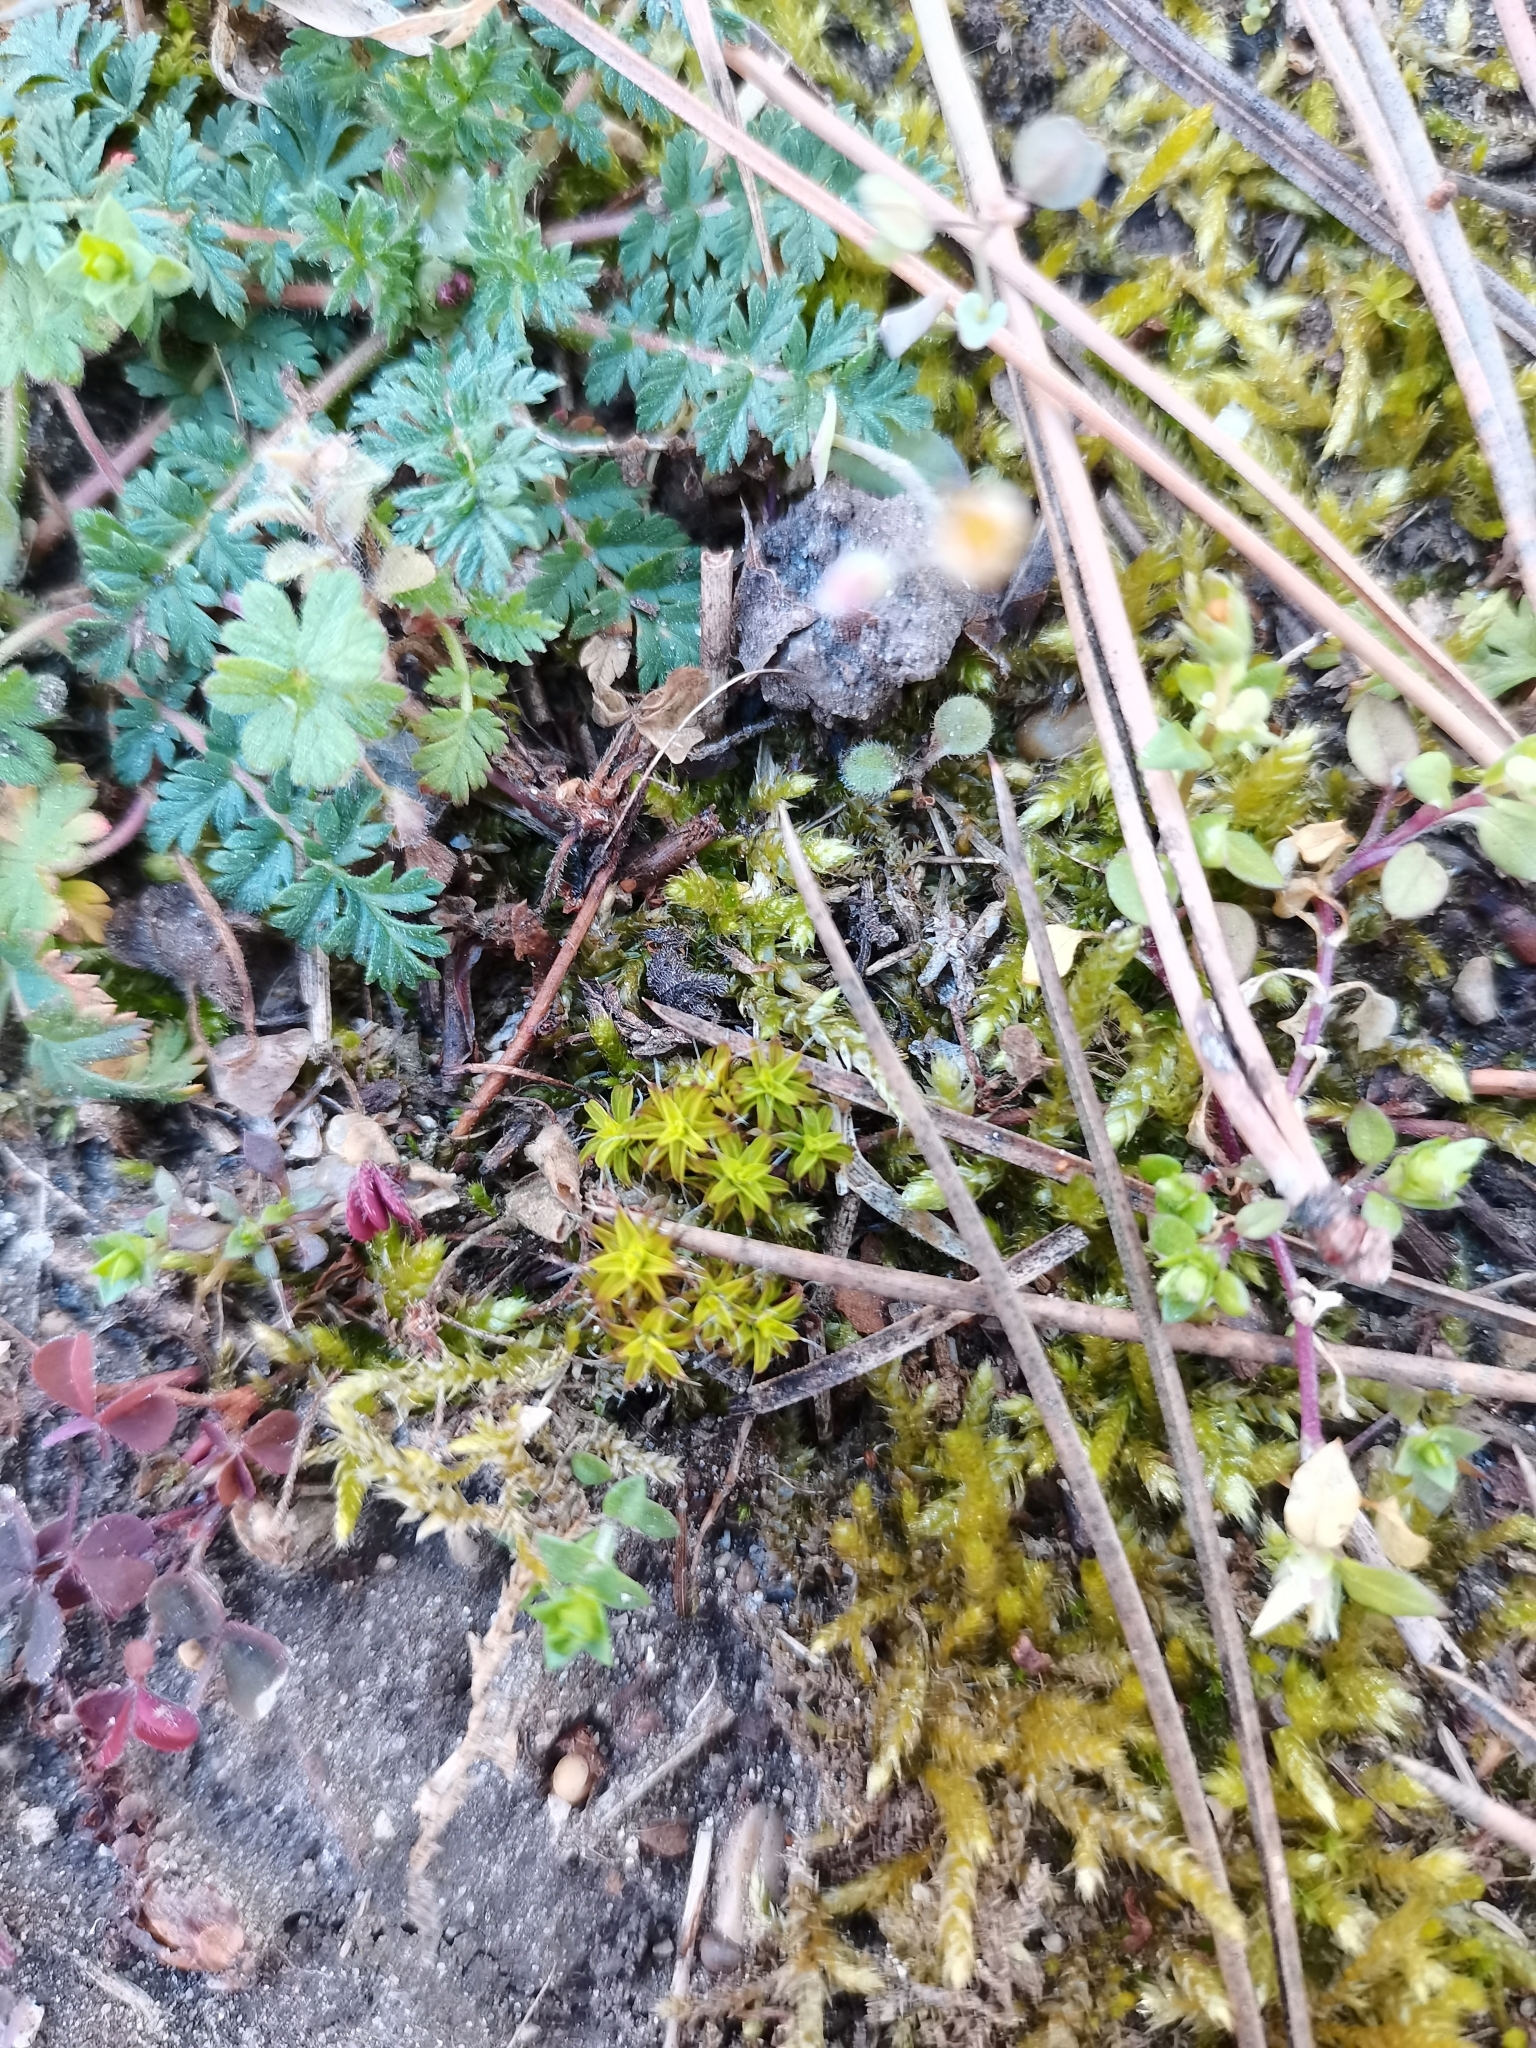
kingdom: Plantae
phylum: Bryophyta
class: Bryopsida
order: Pottiales
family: Pottiaceae
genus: Syntrichia
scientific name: Syntrichia ruralis
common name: Sidewalk screw moss
